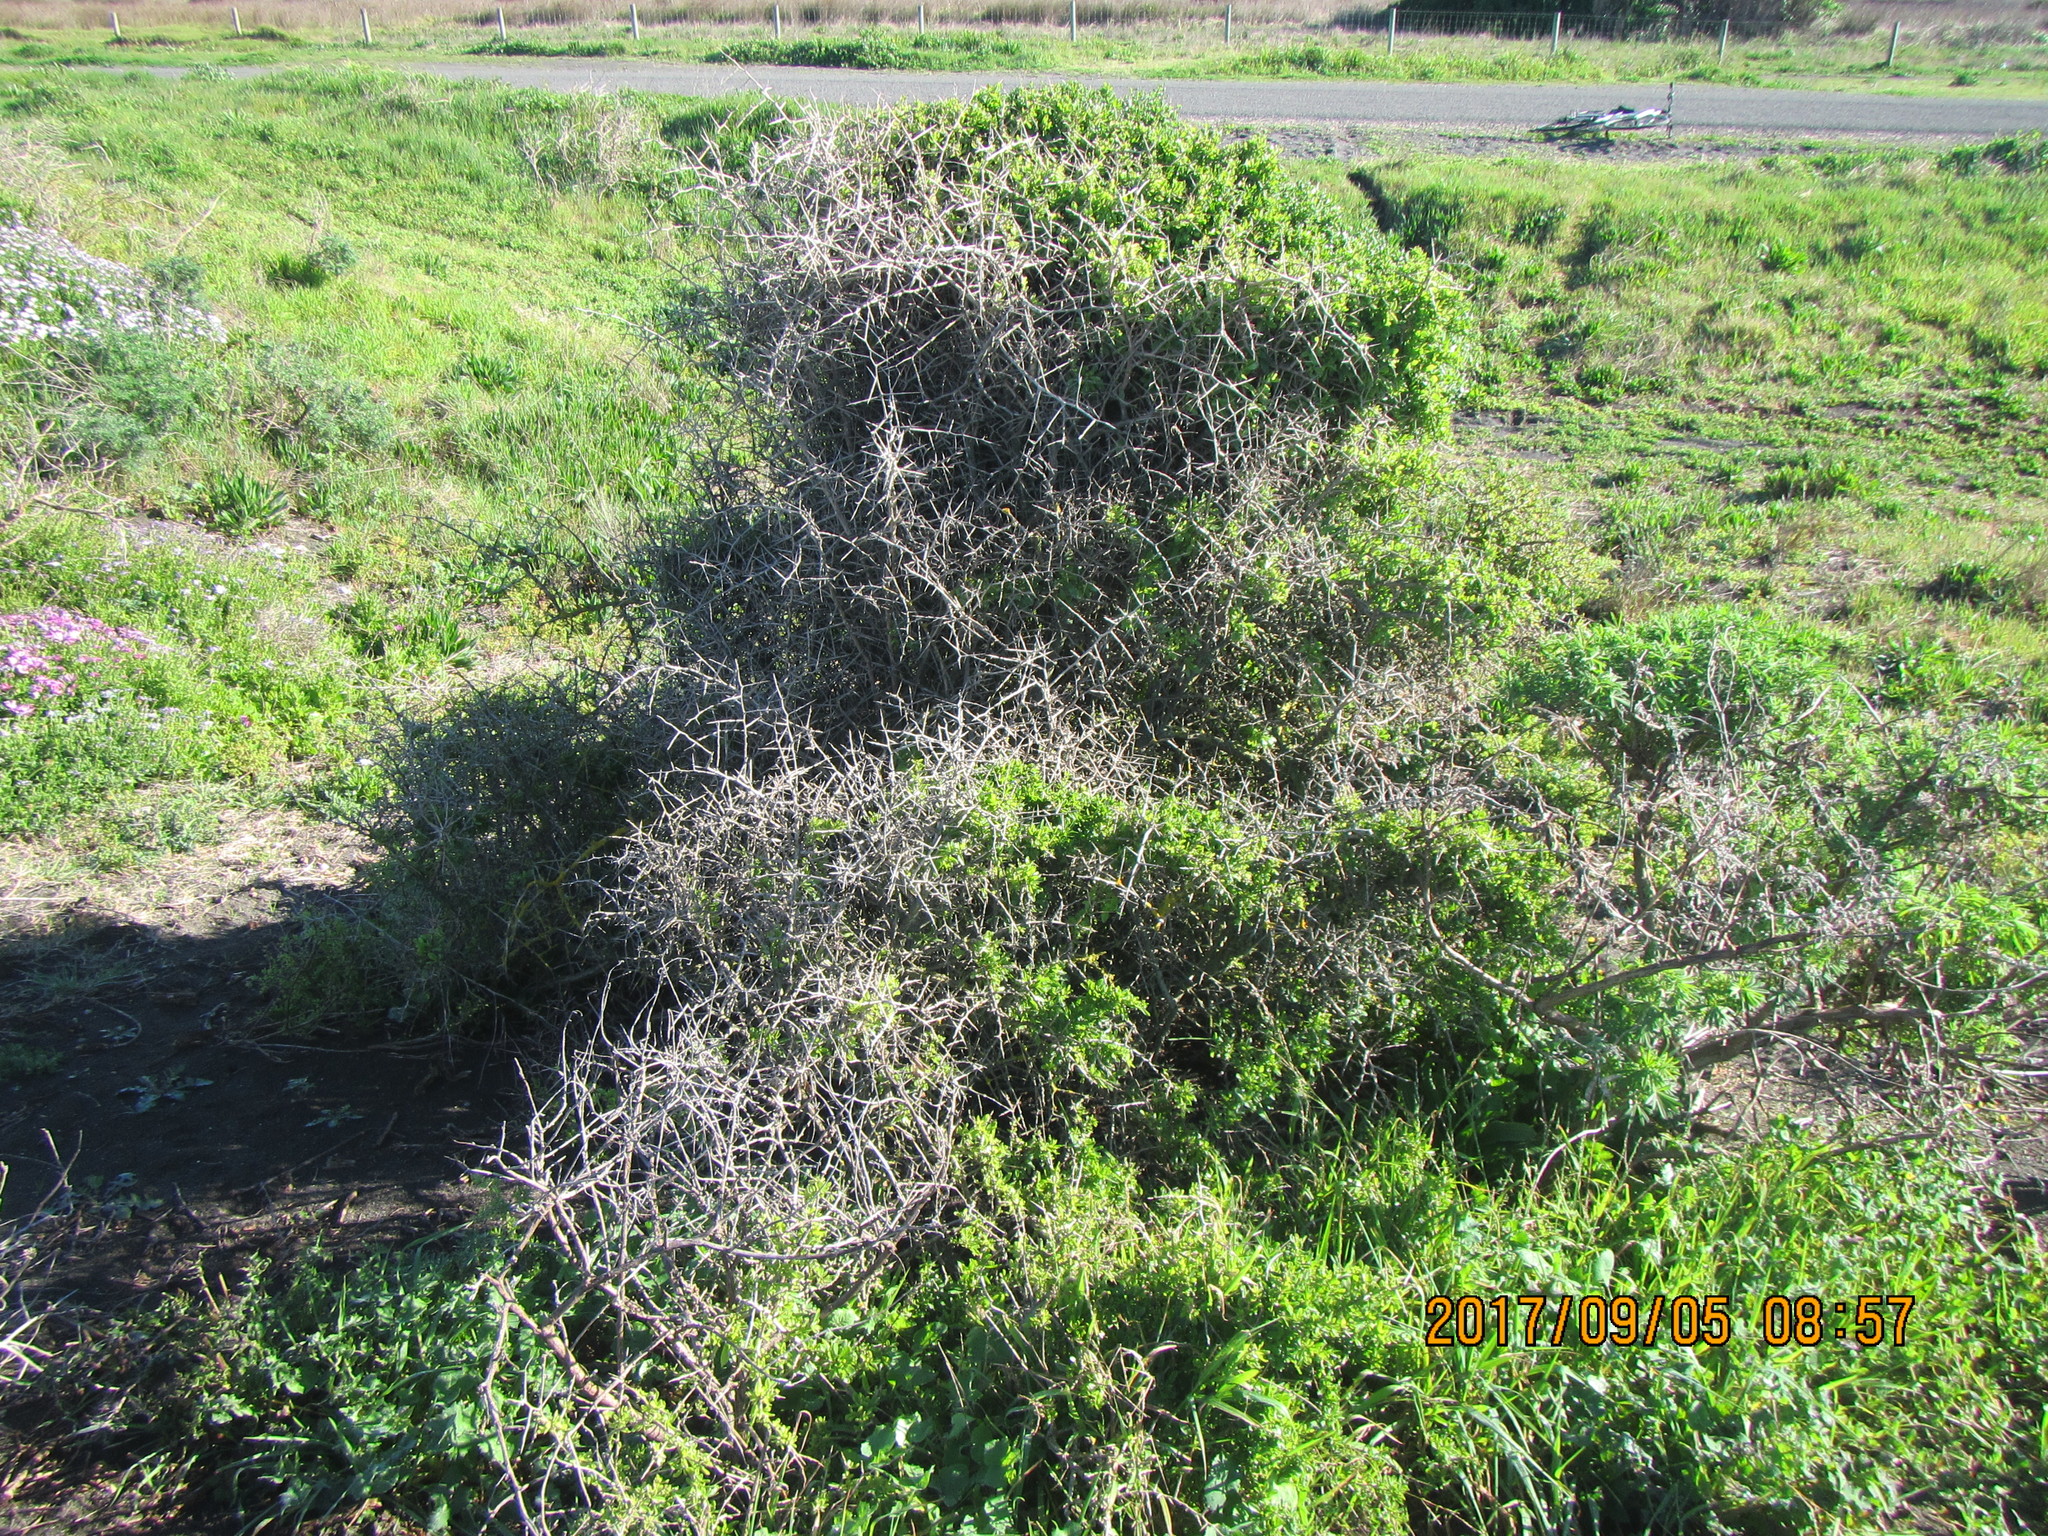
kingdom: Plantae
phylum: Tracheophyta
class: Magnoliopsida
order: Solanales
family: Solanaceae
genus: Lycium
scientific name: Lycium ferocissimum
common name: African boxthorn
